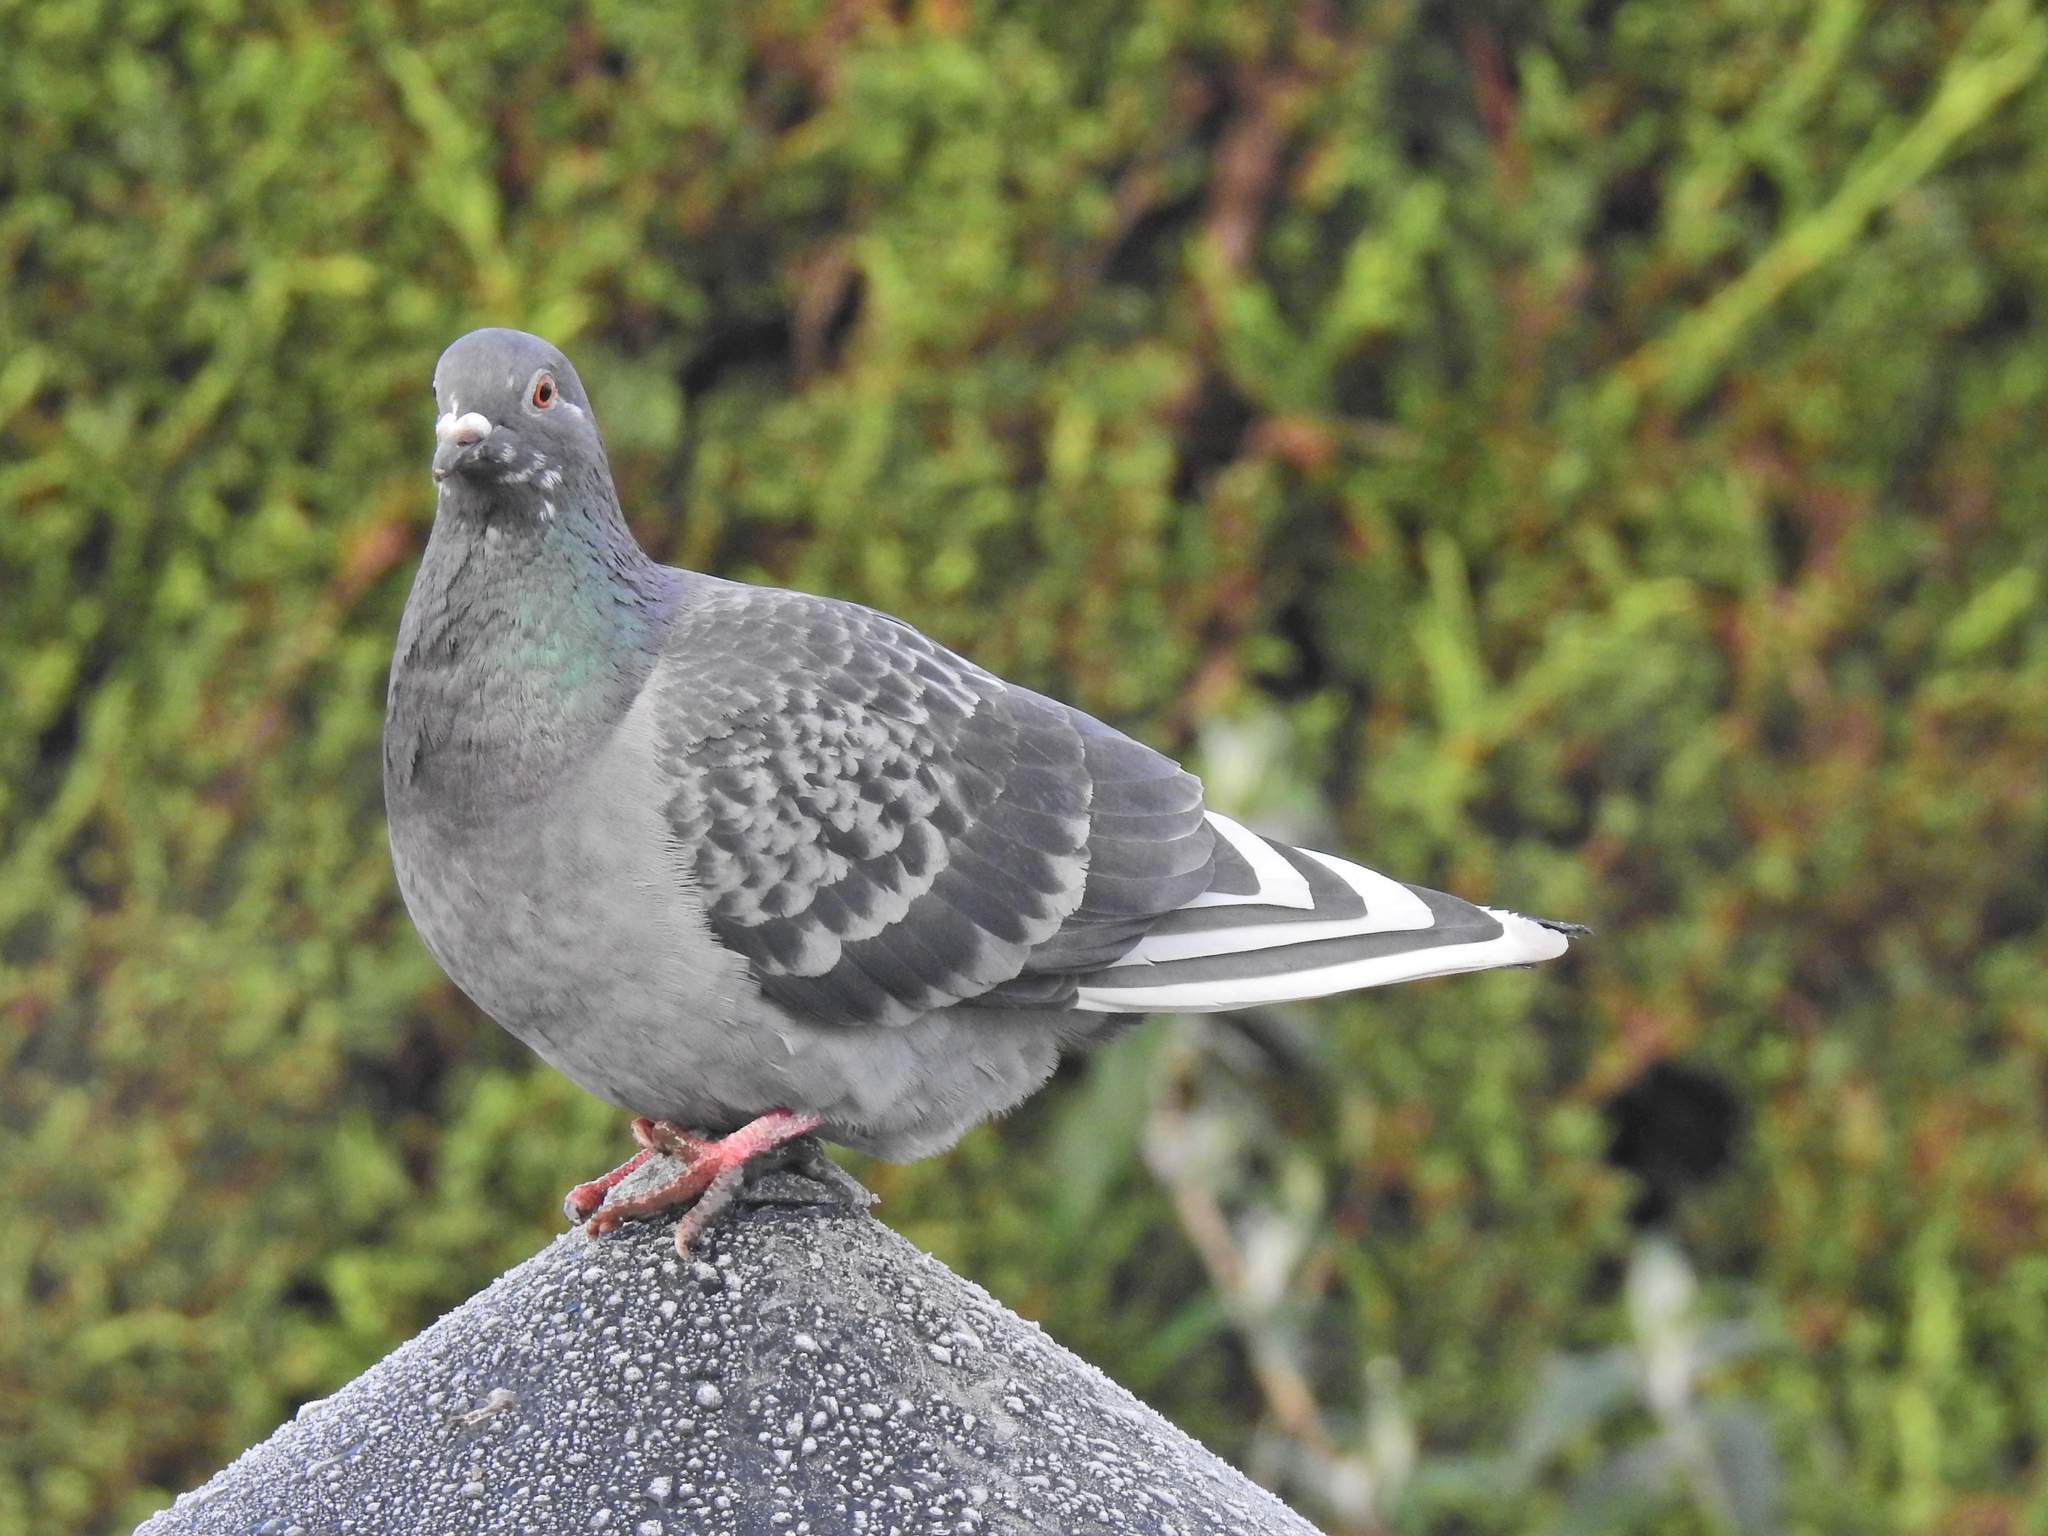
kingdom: Animalia
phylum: Chordata
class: Aves
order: Columbiformes
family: Columbidae
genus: Columba
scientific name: Columba livia
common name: Rock pigeon
